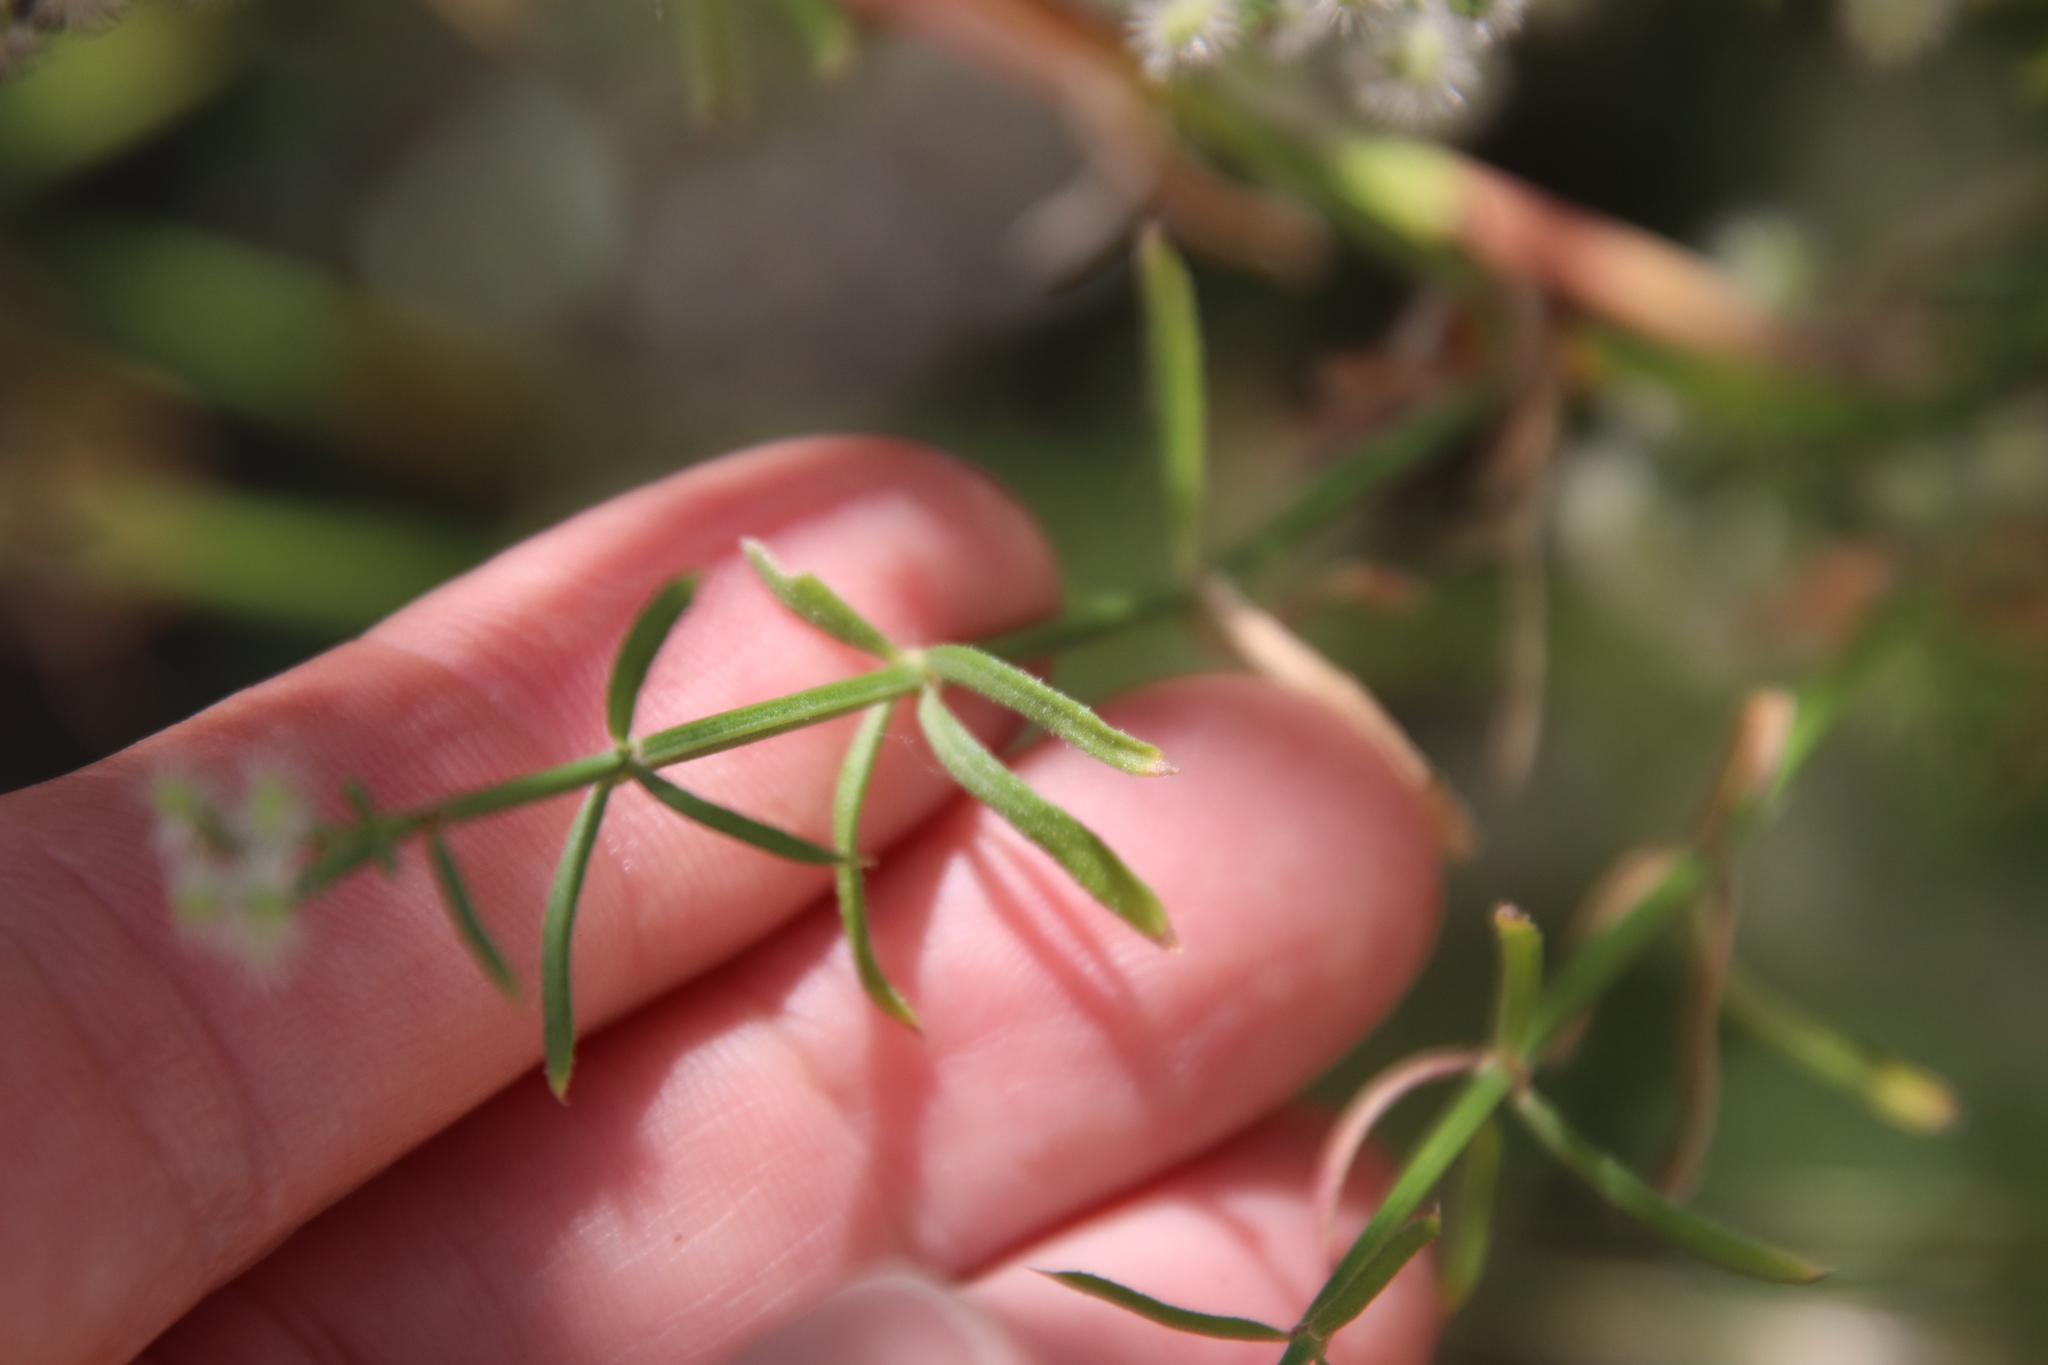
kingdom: Plantae
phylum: Tracheophyta
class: Magnoliopsida
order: Gentianales
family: Rubiaceae
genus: Galium
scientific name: Galium angustifolium
